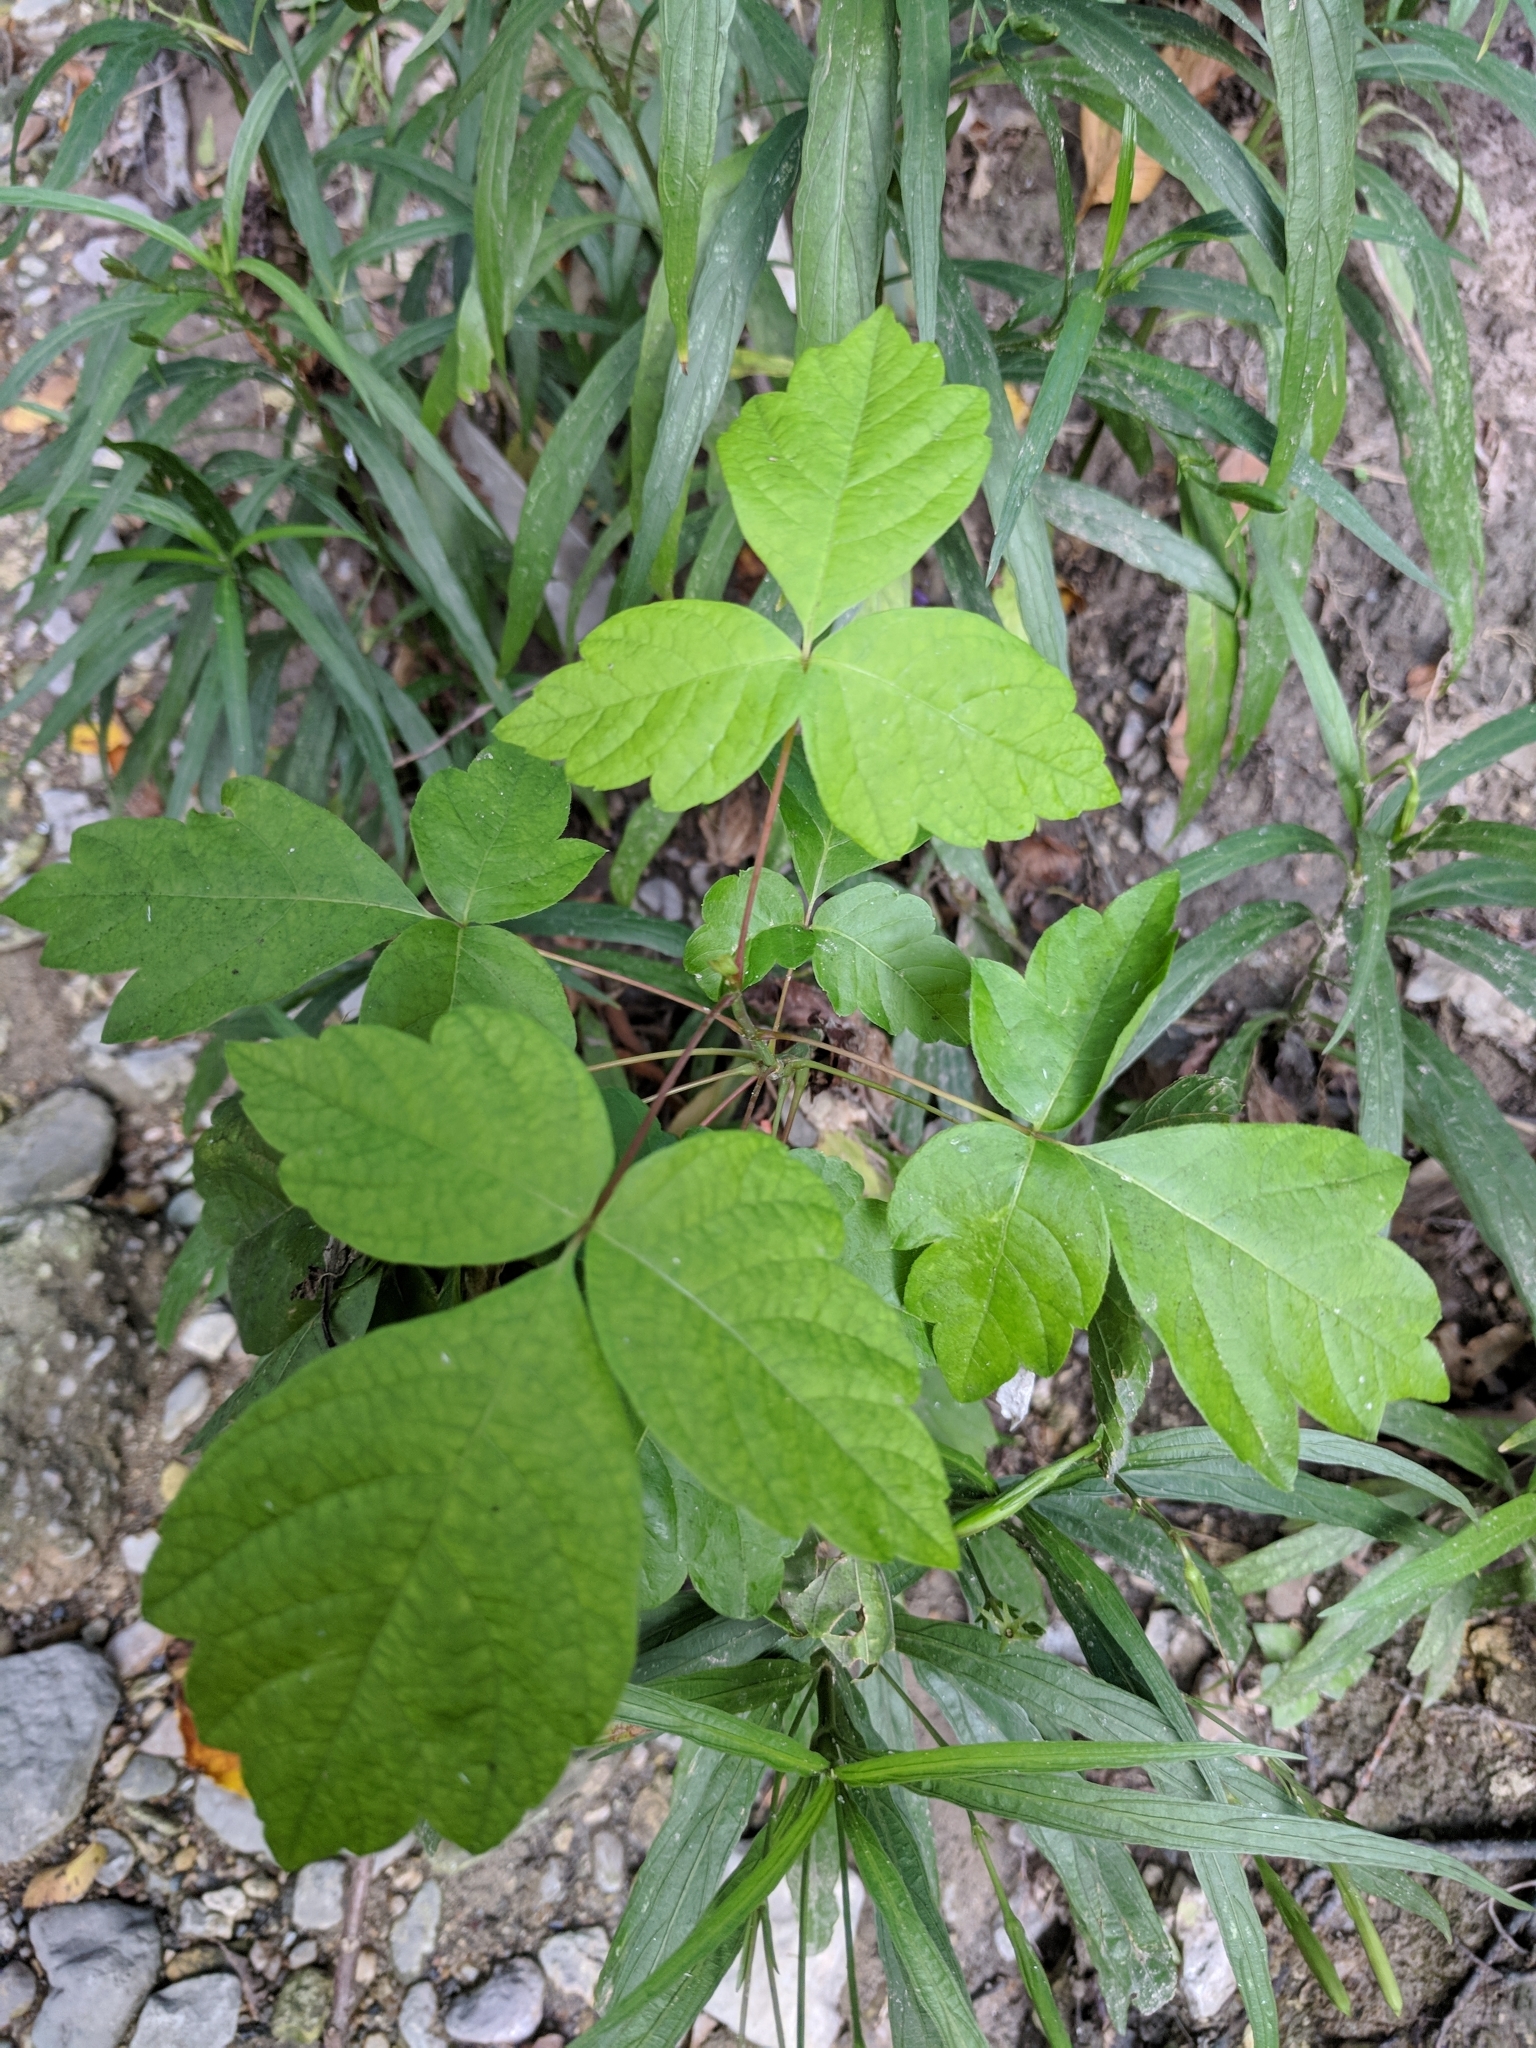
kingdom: Plantae
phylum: Tracheophyta
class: Magnoliopsida
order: Sapindales
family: Sapindaceae
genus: Acer
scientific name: Acer negundo
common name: Ashleaf maple
